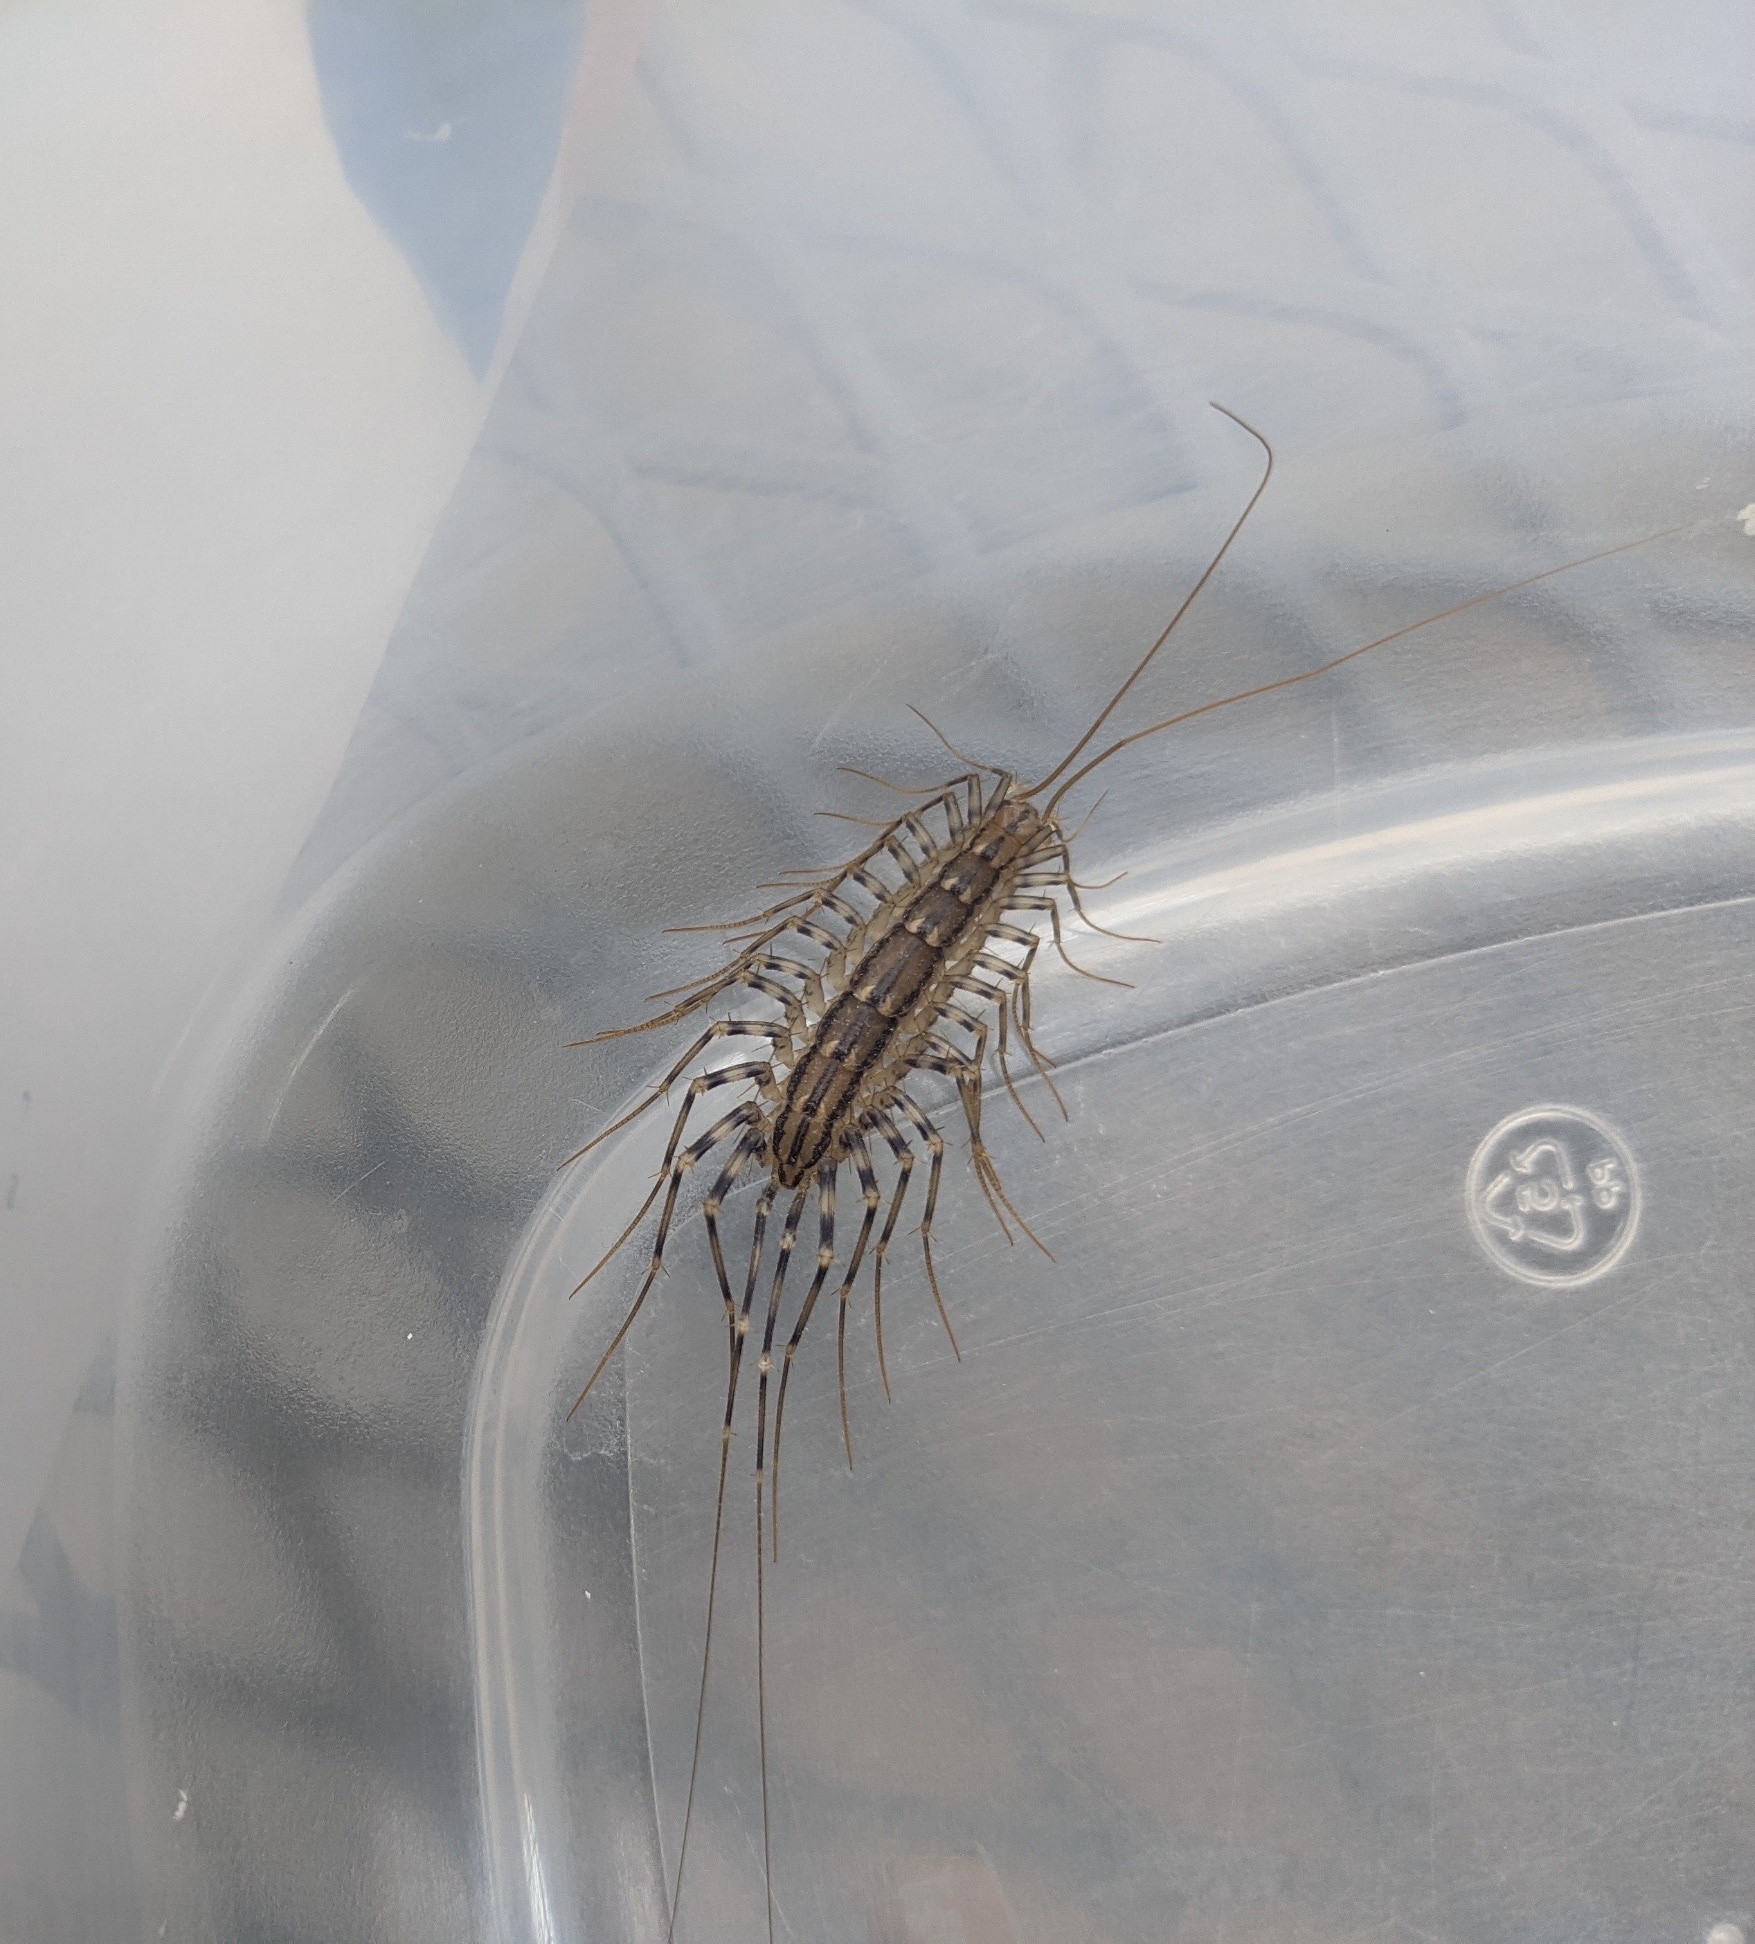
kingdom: Animalia
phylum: Arthropoda
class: Chilopoda
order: Scutigeromorpha
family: Scutigeridae
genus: Scutigera
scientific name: Scutigera coleoptrata
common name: House centipede
